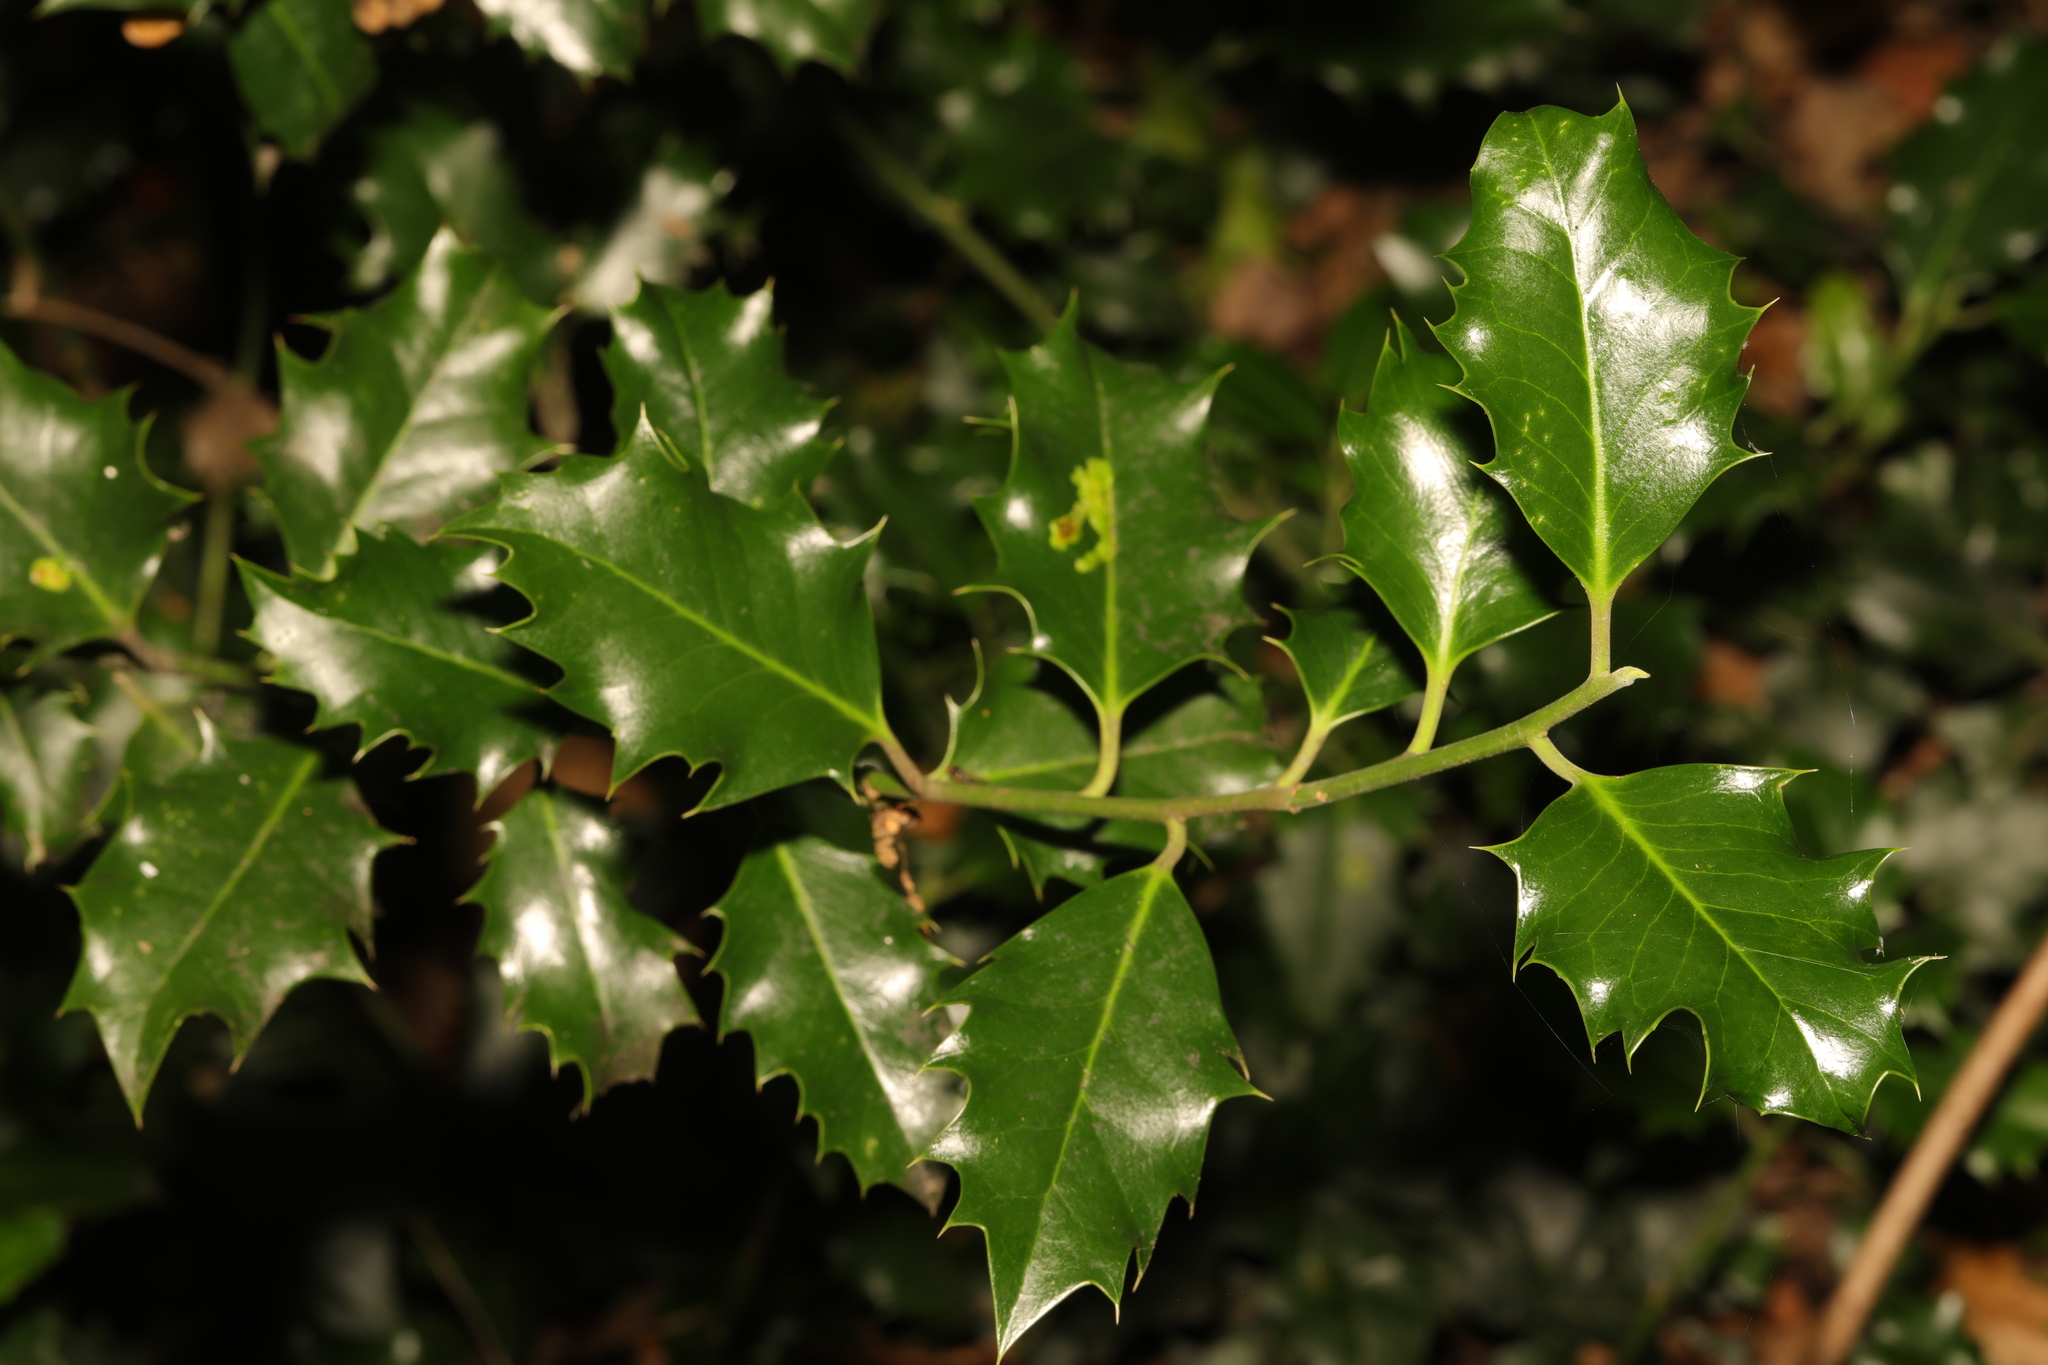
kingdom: Plantae
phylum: Tracheophyta
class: Magnoliopsida
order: Aquifoliales
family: Aquifoliaceae
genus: Ilex
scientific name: Ilex aquifolium
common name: English holly
